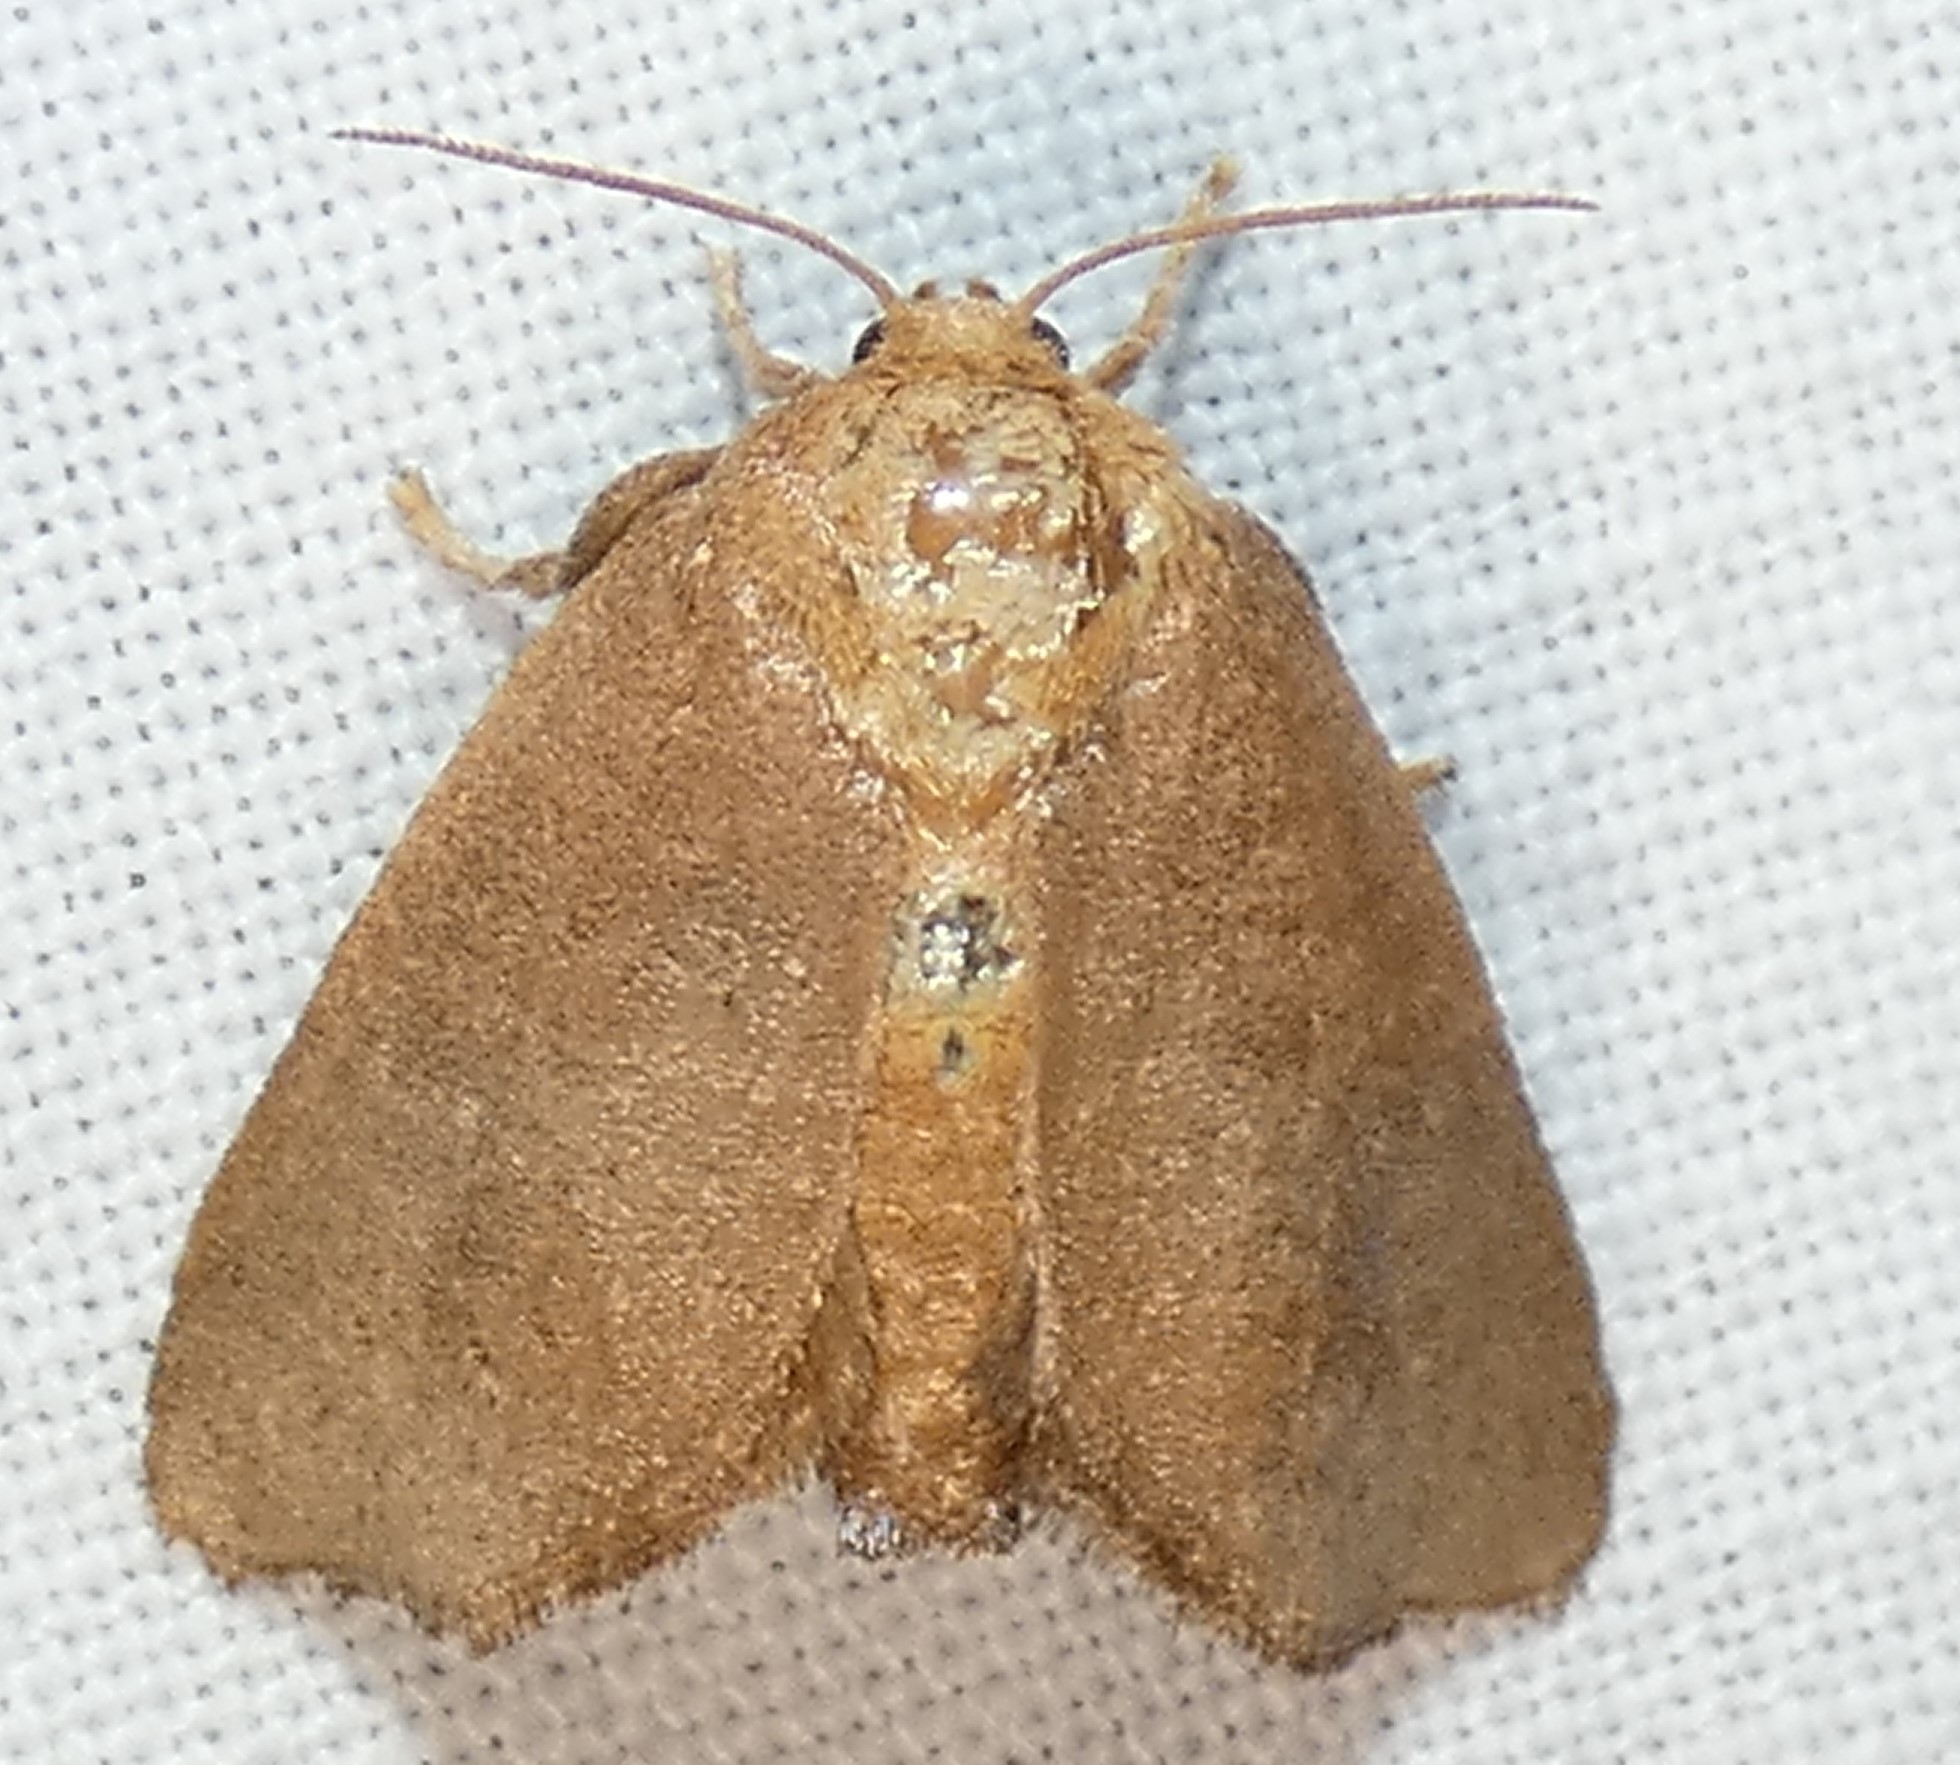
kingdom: Animalia
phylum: Arthropoda
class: Insecta
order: Lepidoptera
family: Limacodidae
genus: Isa
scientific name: Isa textula
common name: Crowned slug moth
